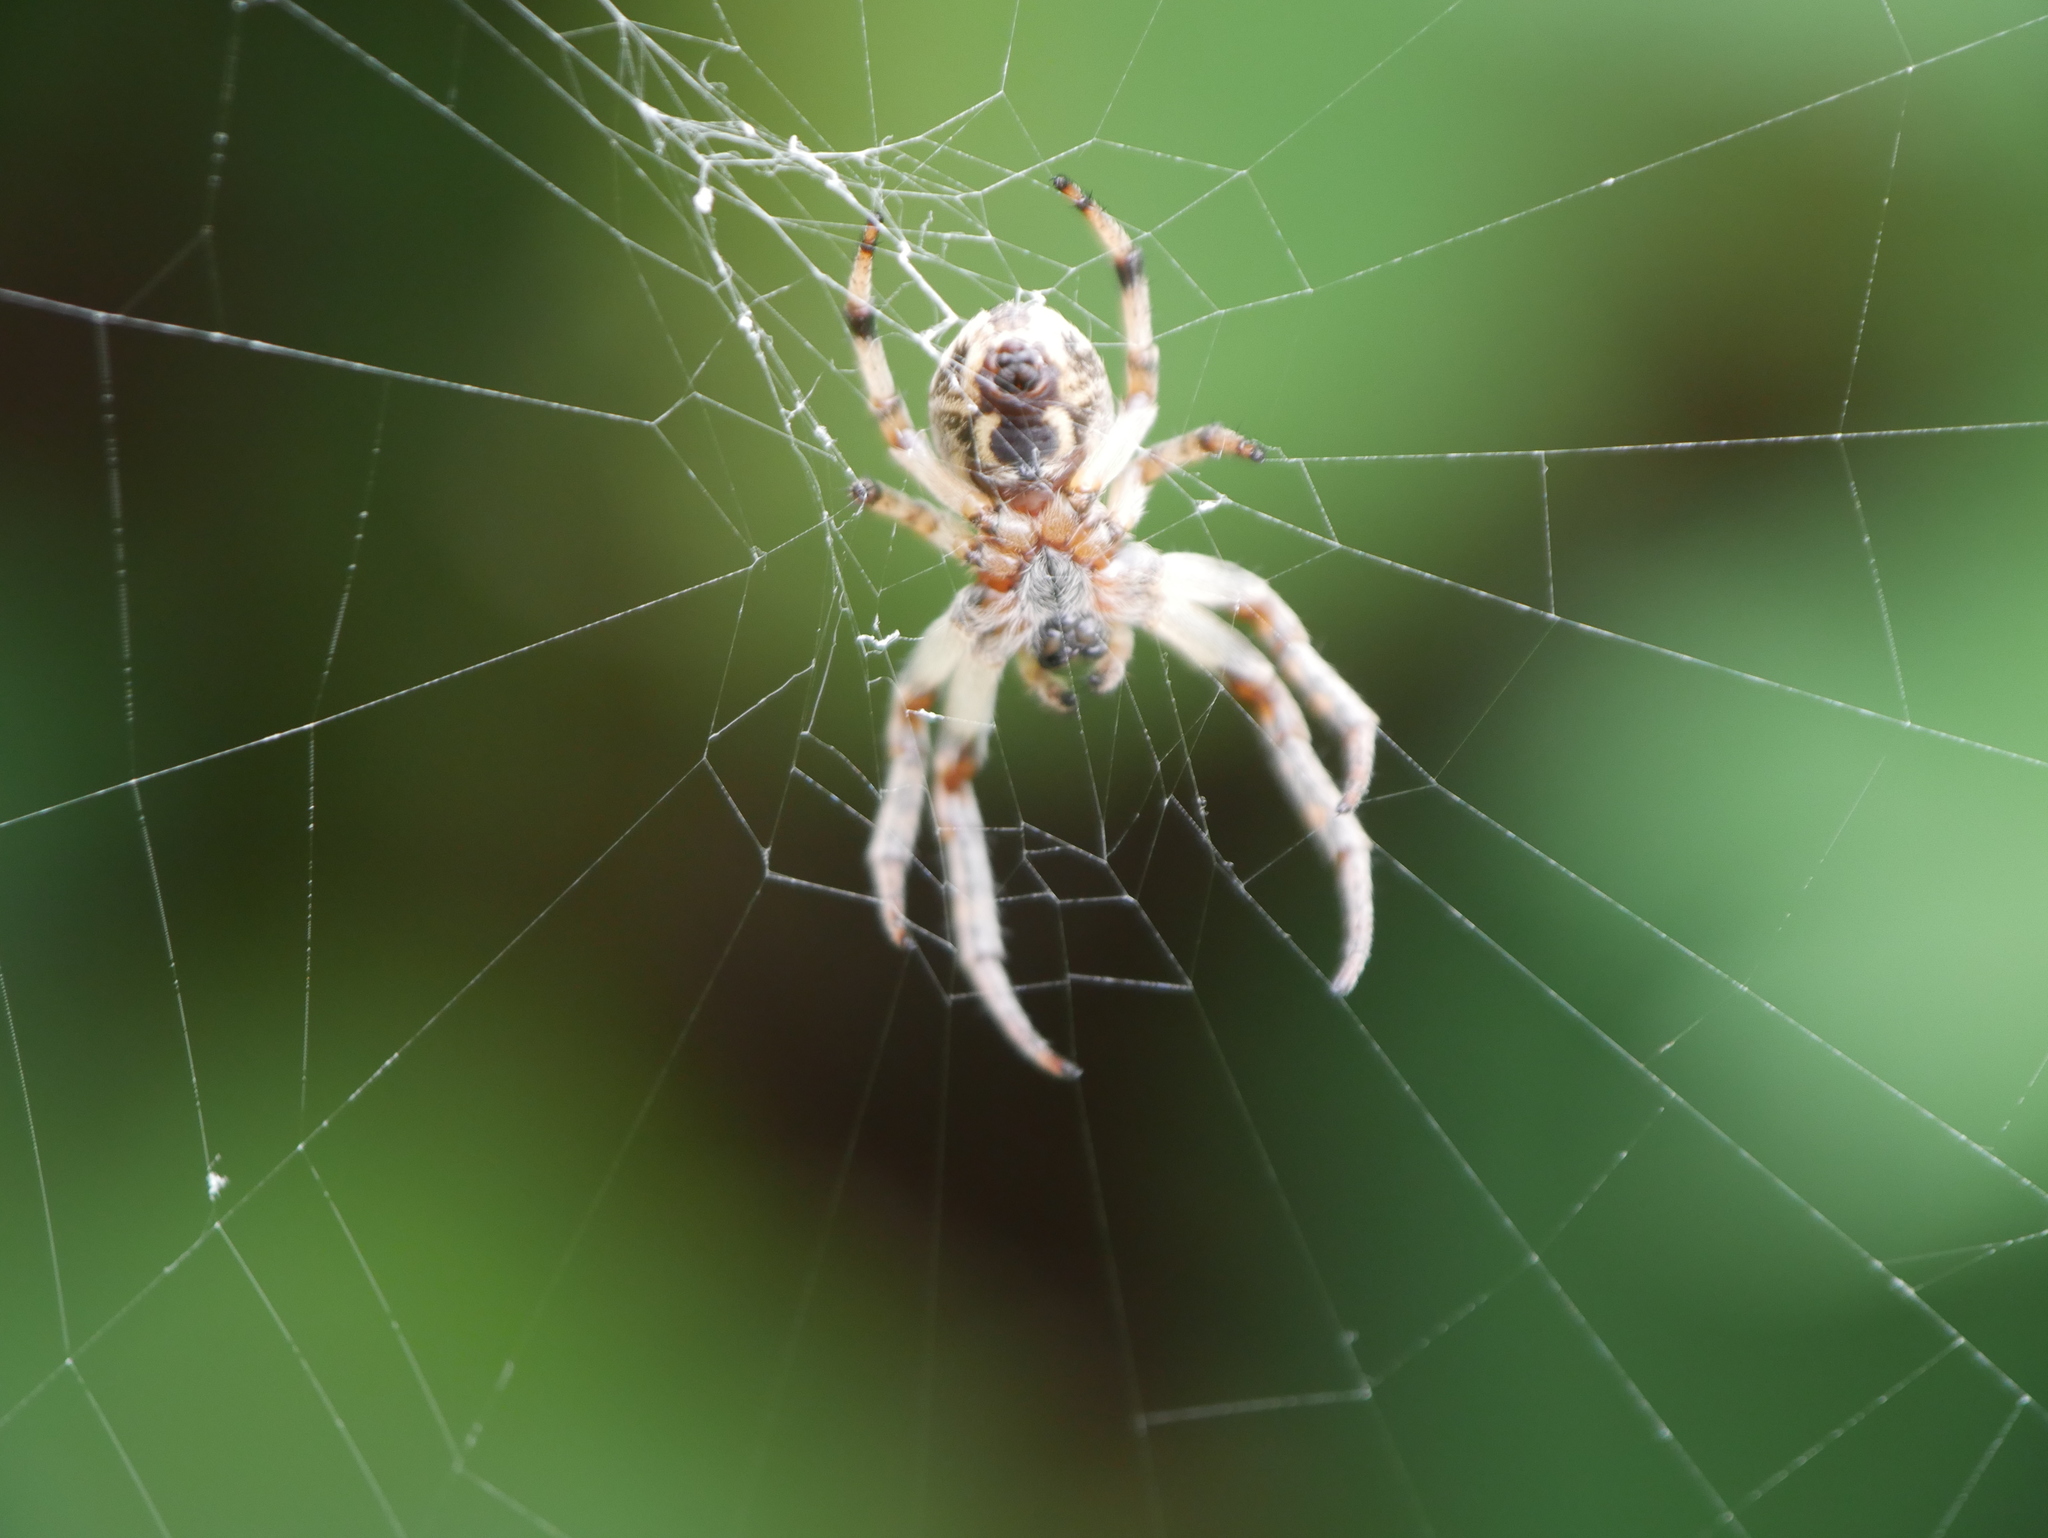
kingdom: Animalia
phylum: Arthropoda
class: Arachnida
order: Araneae
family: Araneidae
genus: Larinioides
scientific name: Larinioides cornutus
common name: Furrow orbweaver
